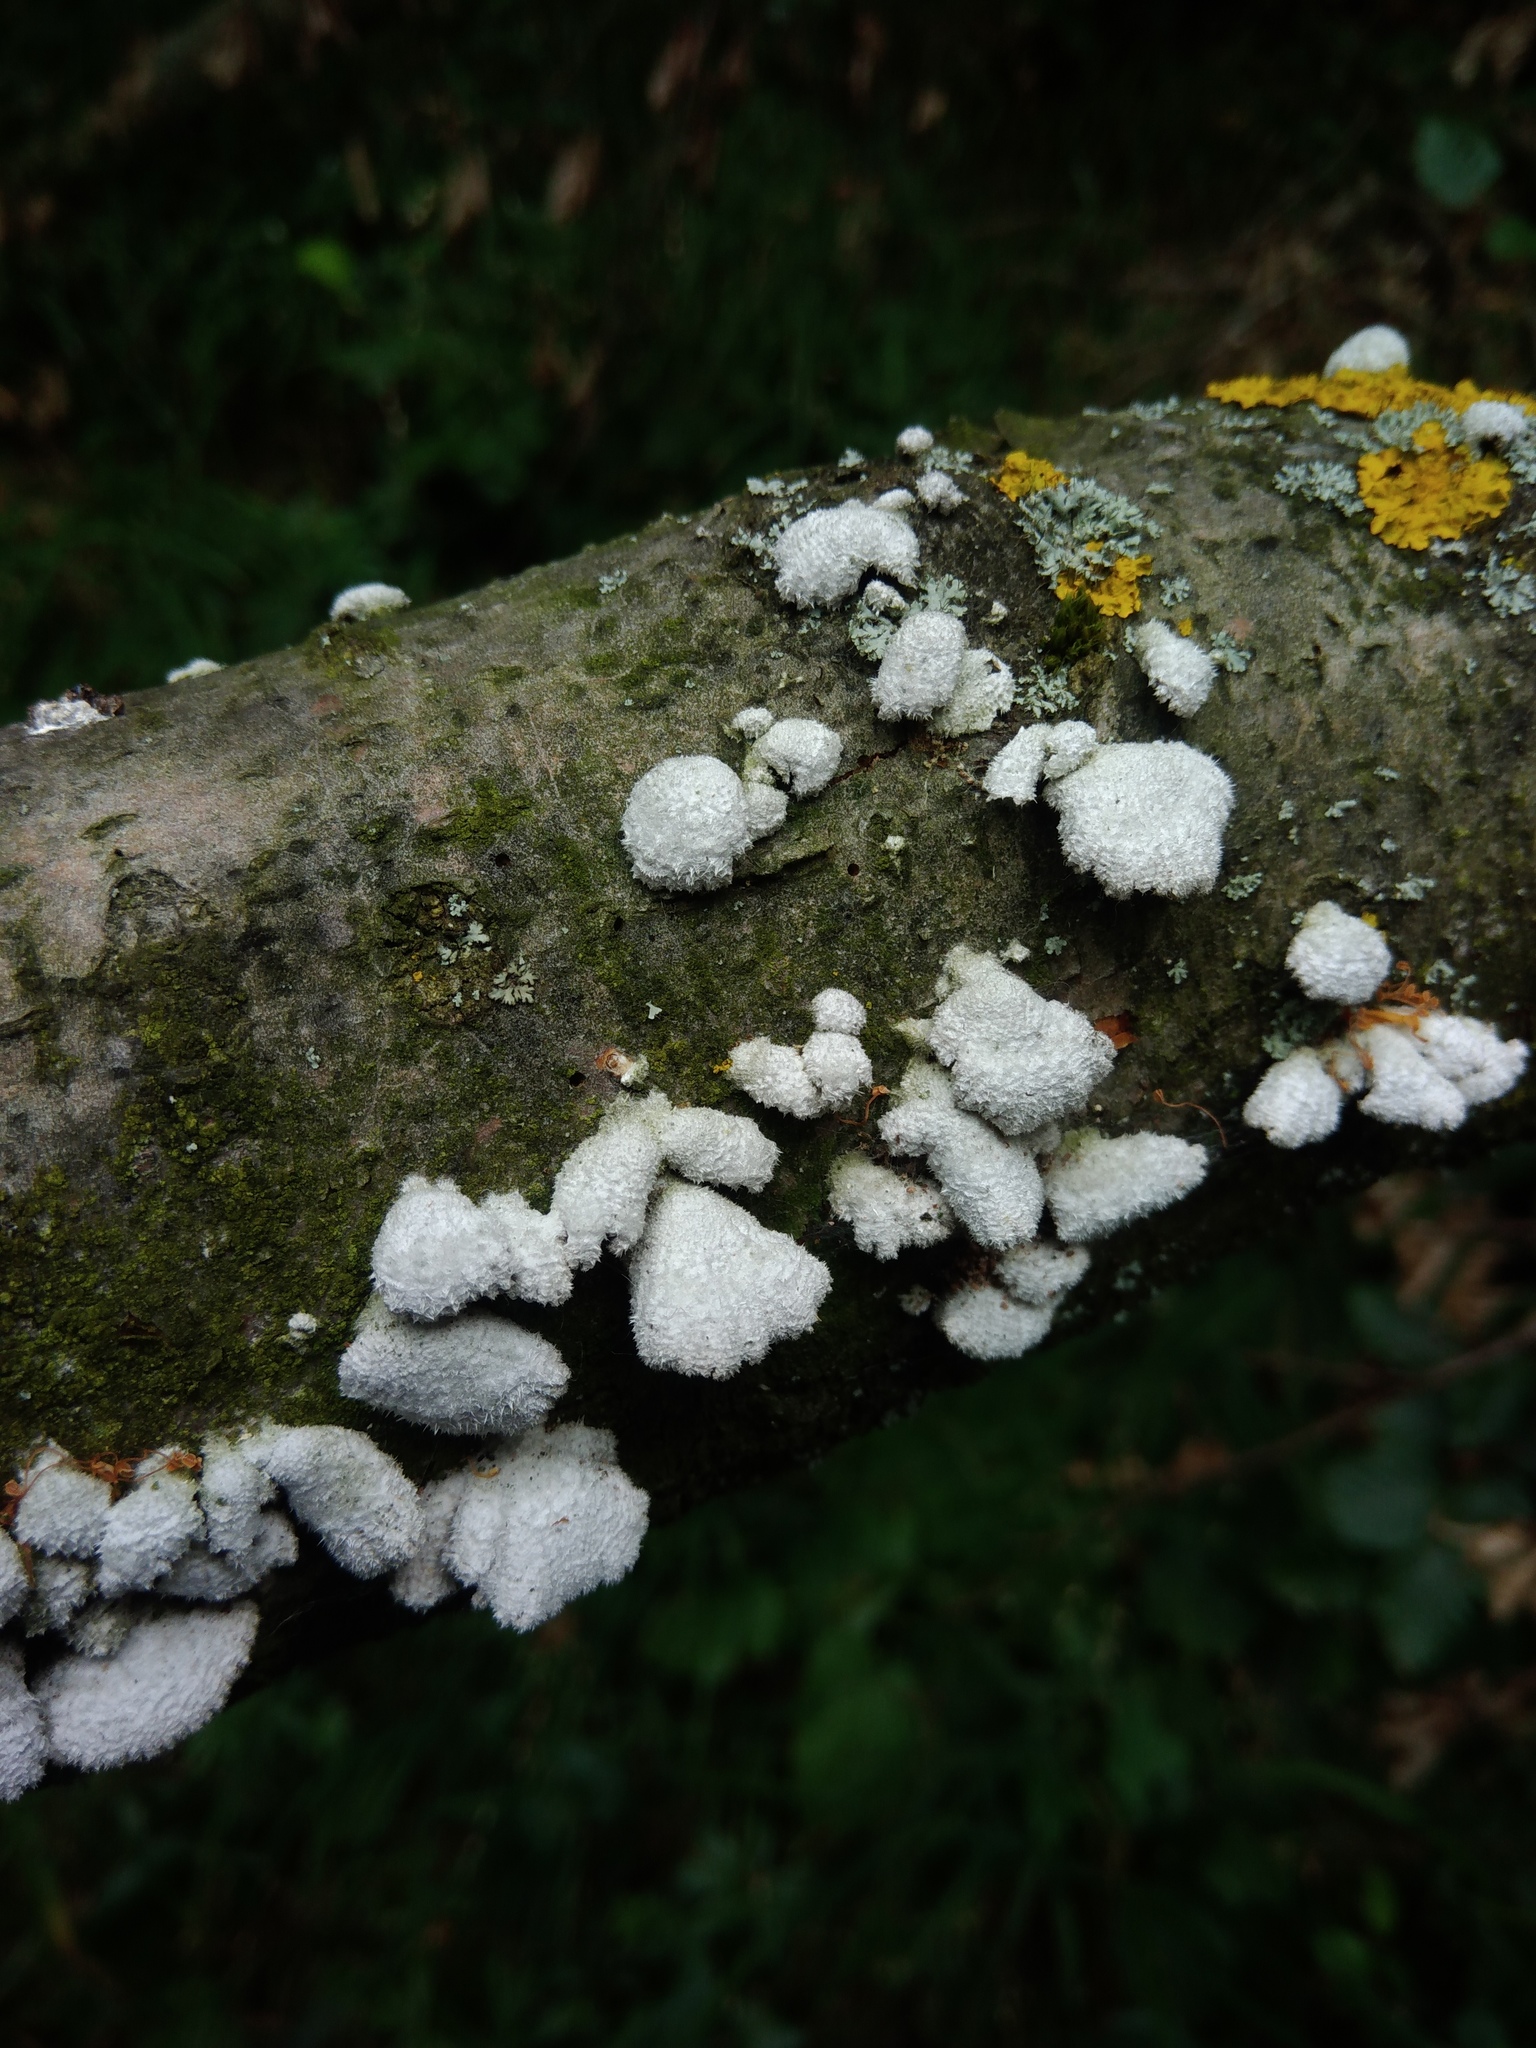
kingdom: Fungi
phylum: Basidiomycota
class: Agaricomycetes
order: Agaricales
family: Schizophyllaceae
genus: Schizophyllum
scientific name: Schizophyllum commune
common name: Common porecrust
